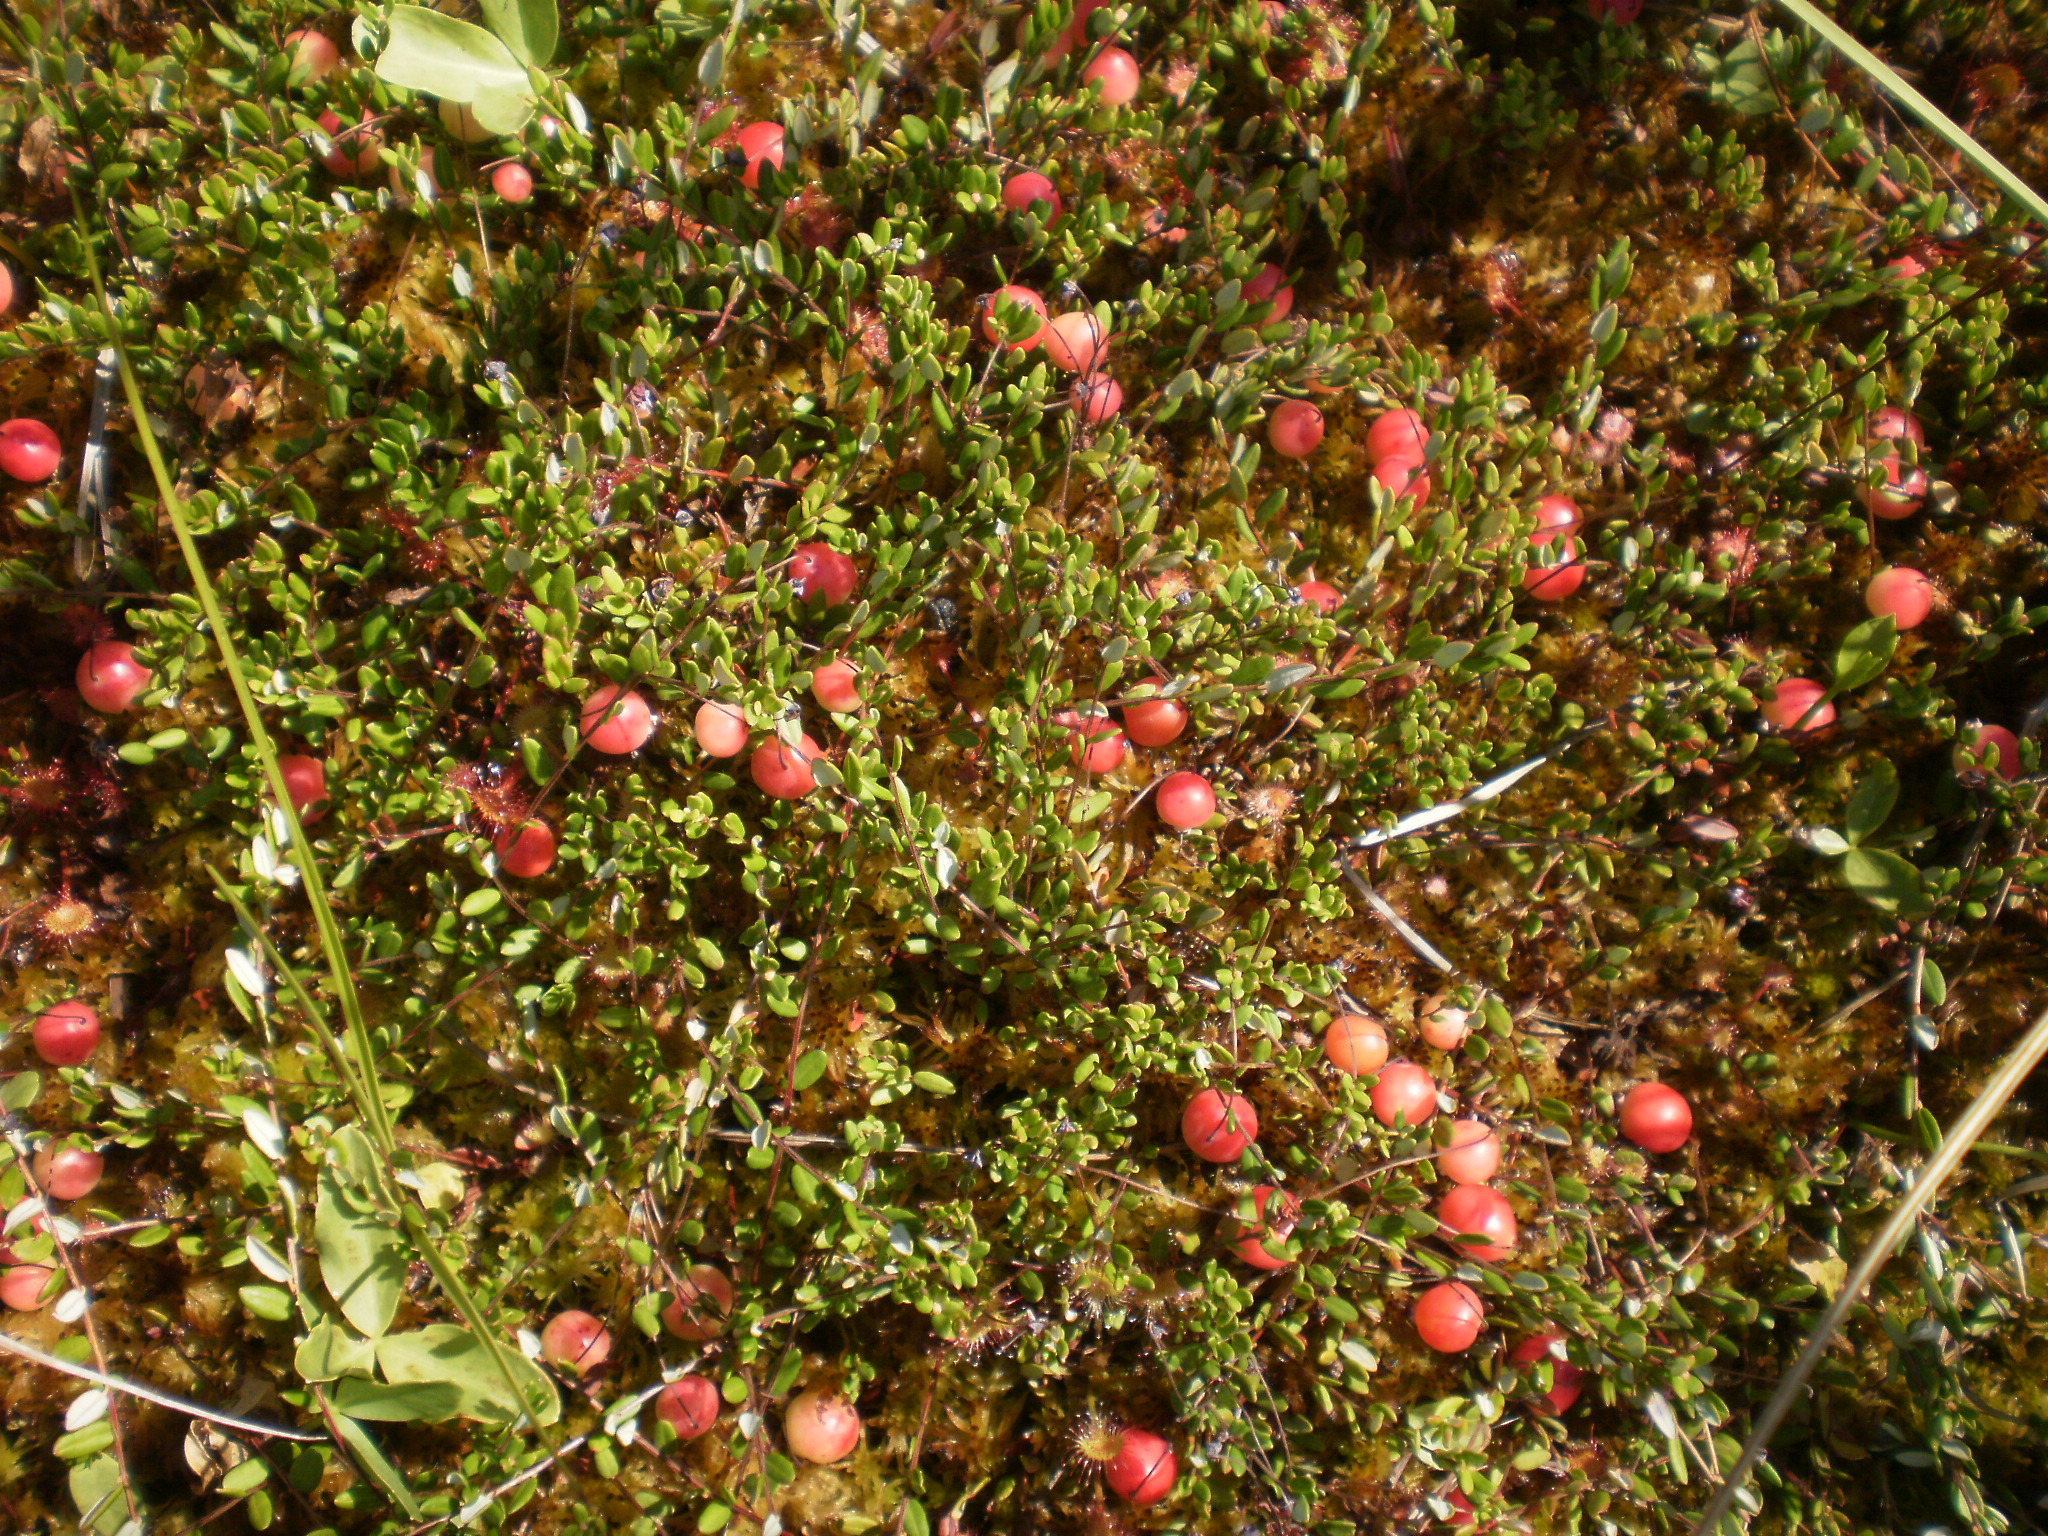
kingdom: Plantae
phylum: Tracheophyta
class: Magnoliopsida
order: Ericales
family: Ericaceae
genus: Vaccinium
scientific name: Vaccinium oxycoccos
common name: Cranberry
